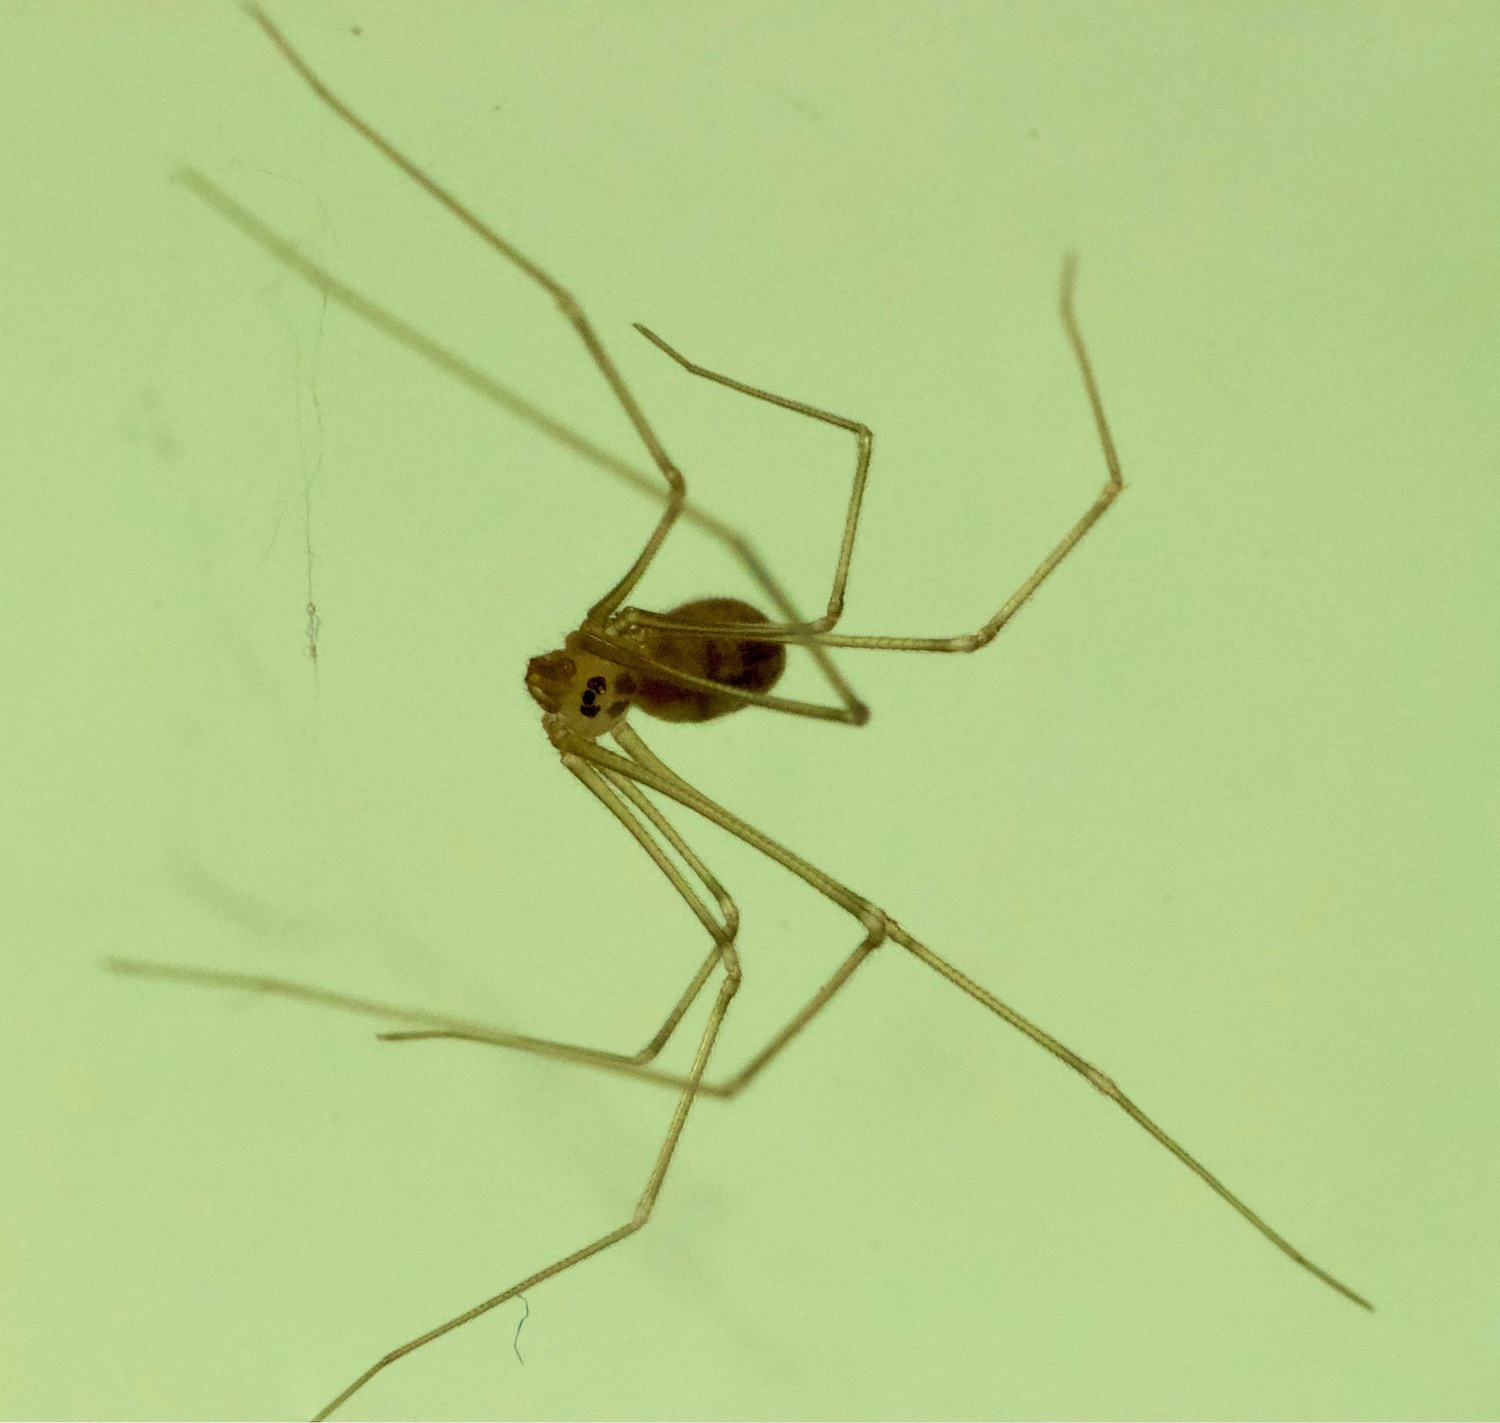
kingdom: Animalia
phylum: Arthropoda
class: Arachnida
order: Araneae
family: Pholcidae
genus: Pholcus
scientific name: Pholcus phalangioides
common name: Longbodied cellar spider
